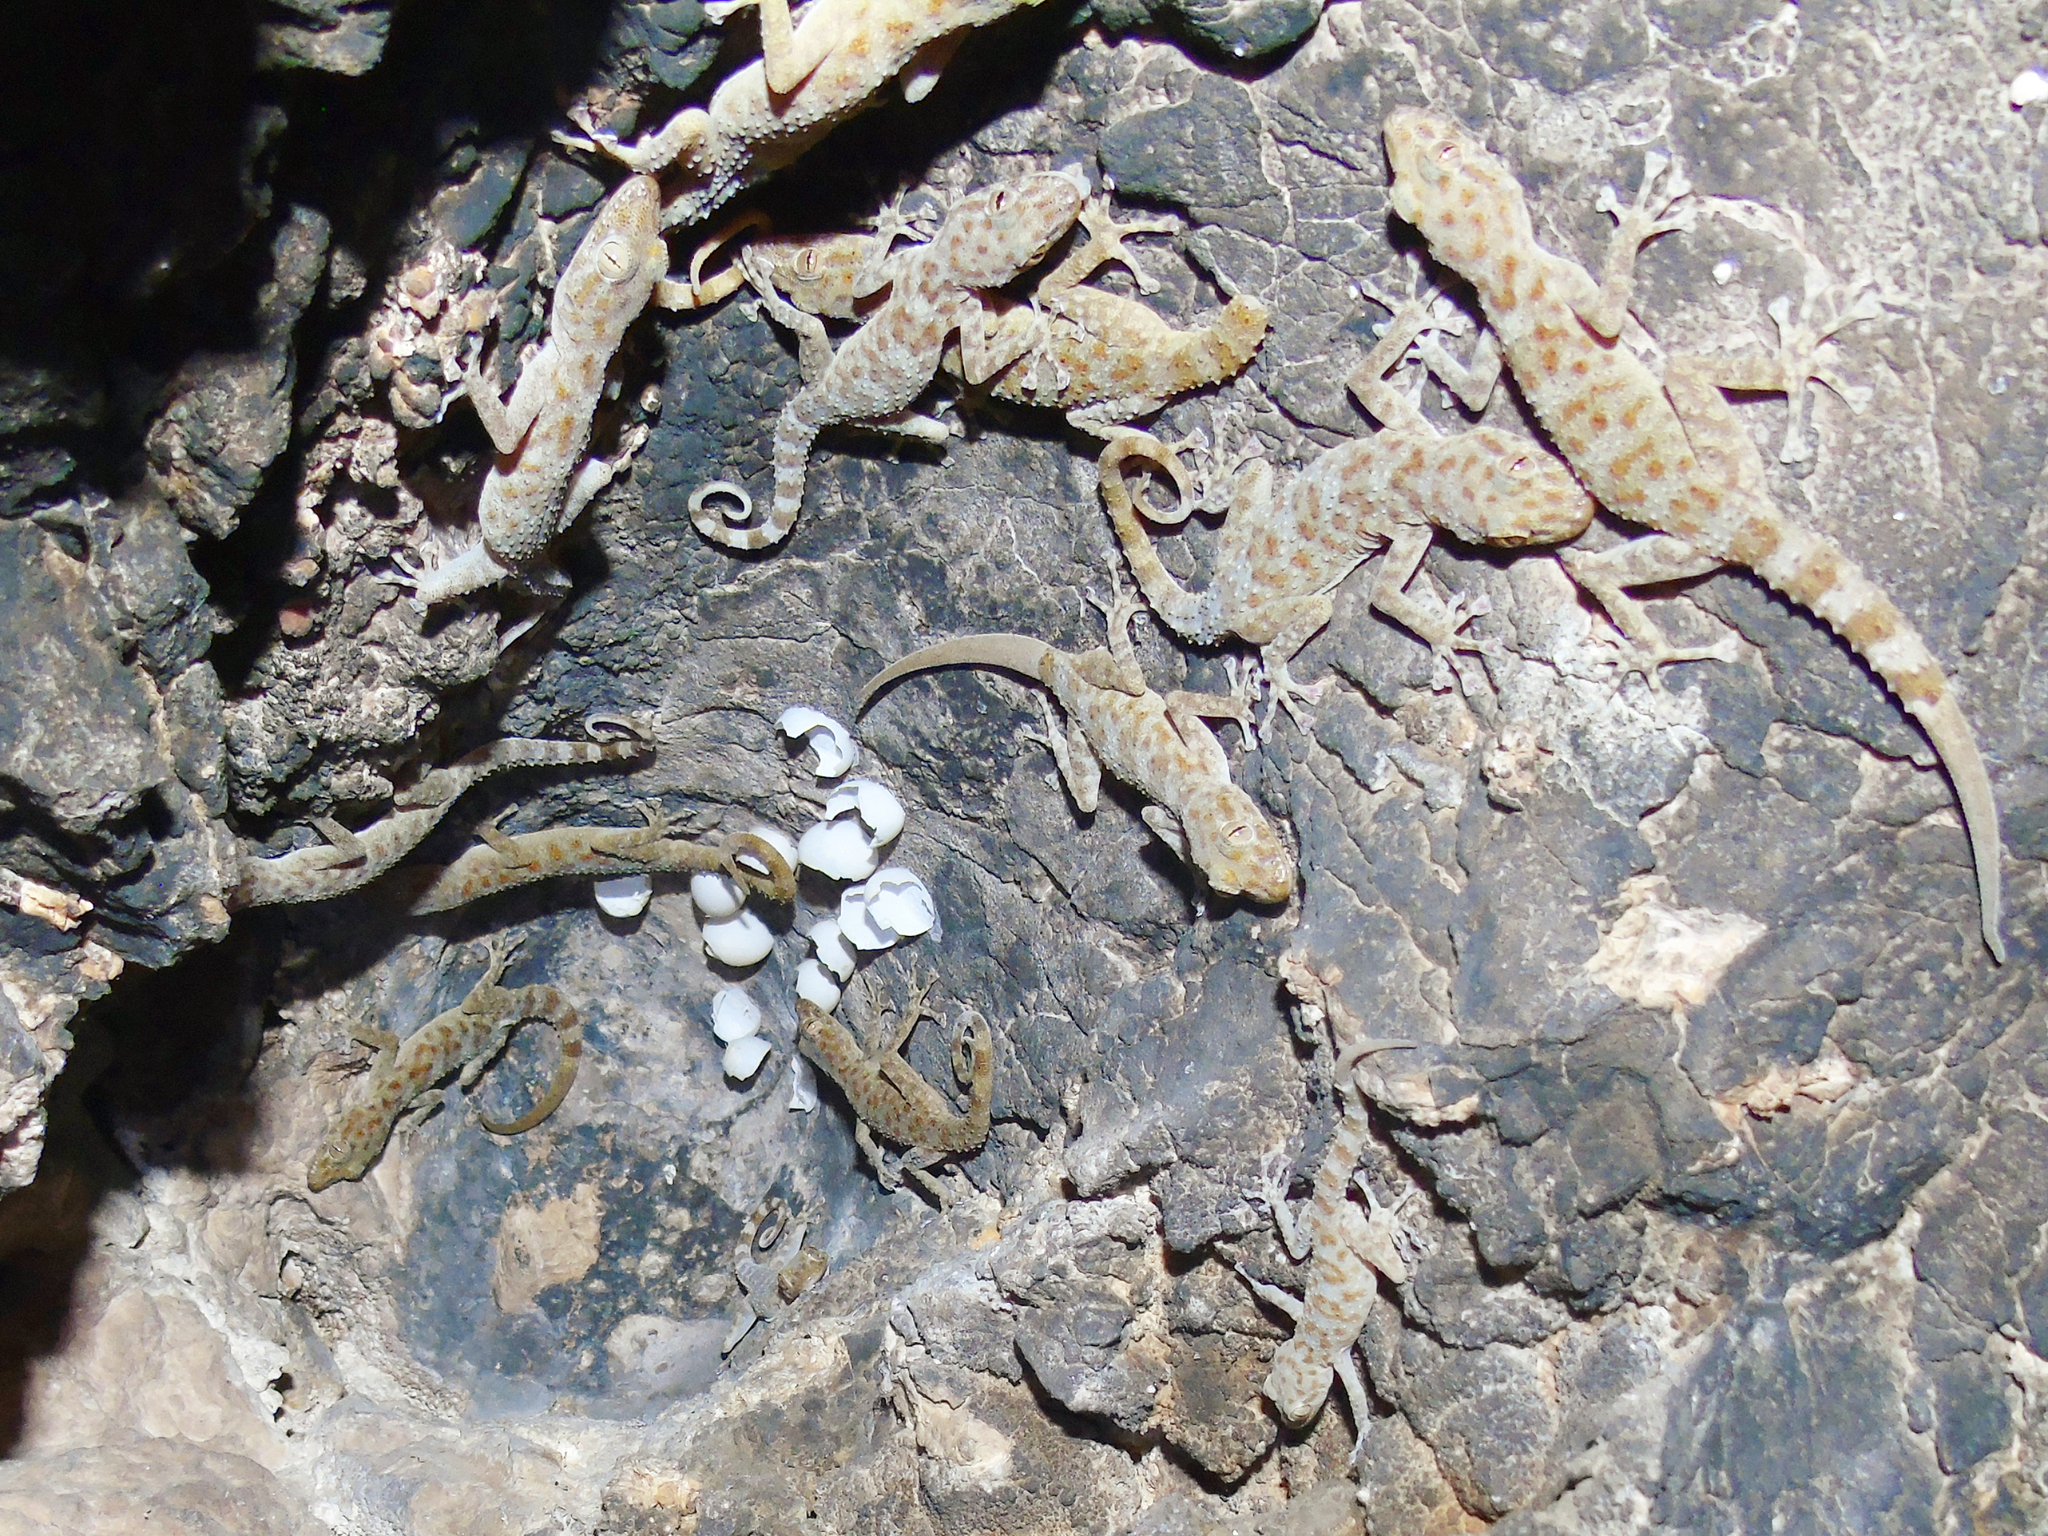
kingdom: Animalia
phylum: Chordata
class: Squamata
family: Phyllodactylidae
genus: Asaccus
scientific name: Asaccus griseonotus
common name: Gray-spotted leaf-toed gecko
